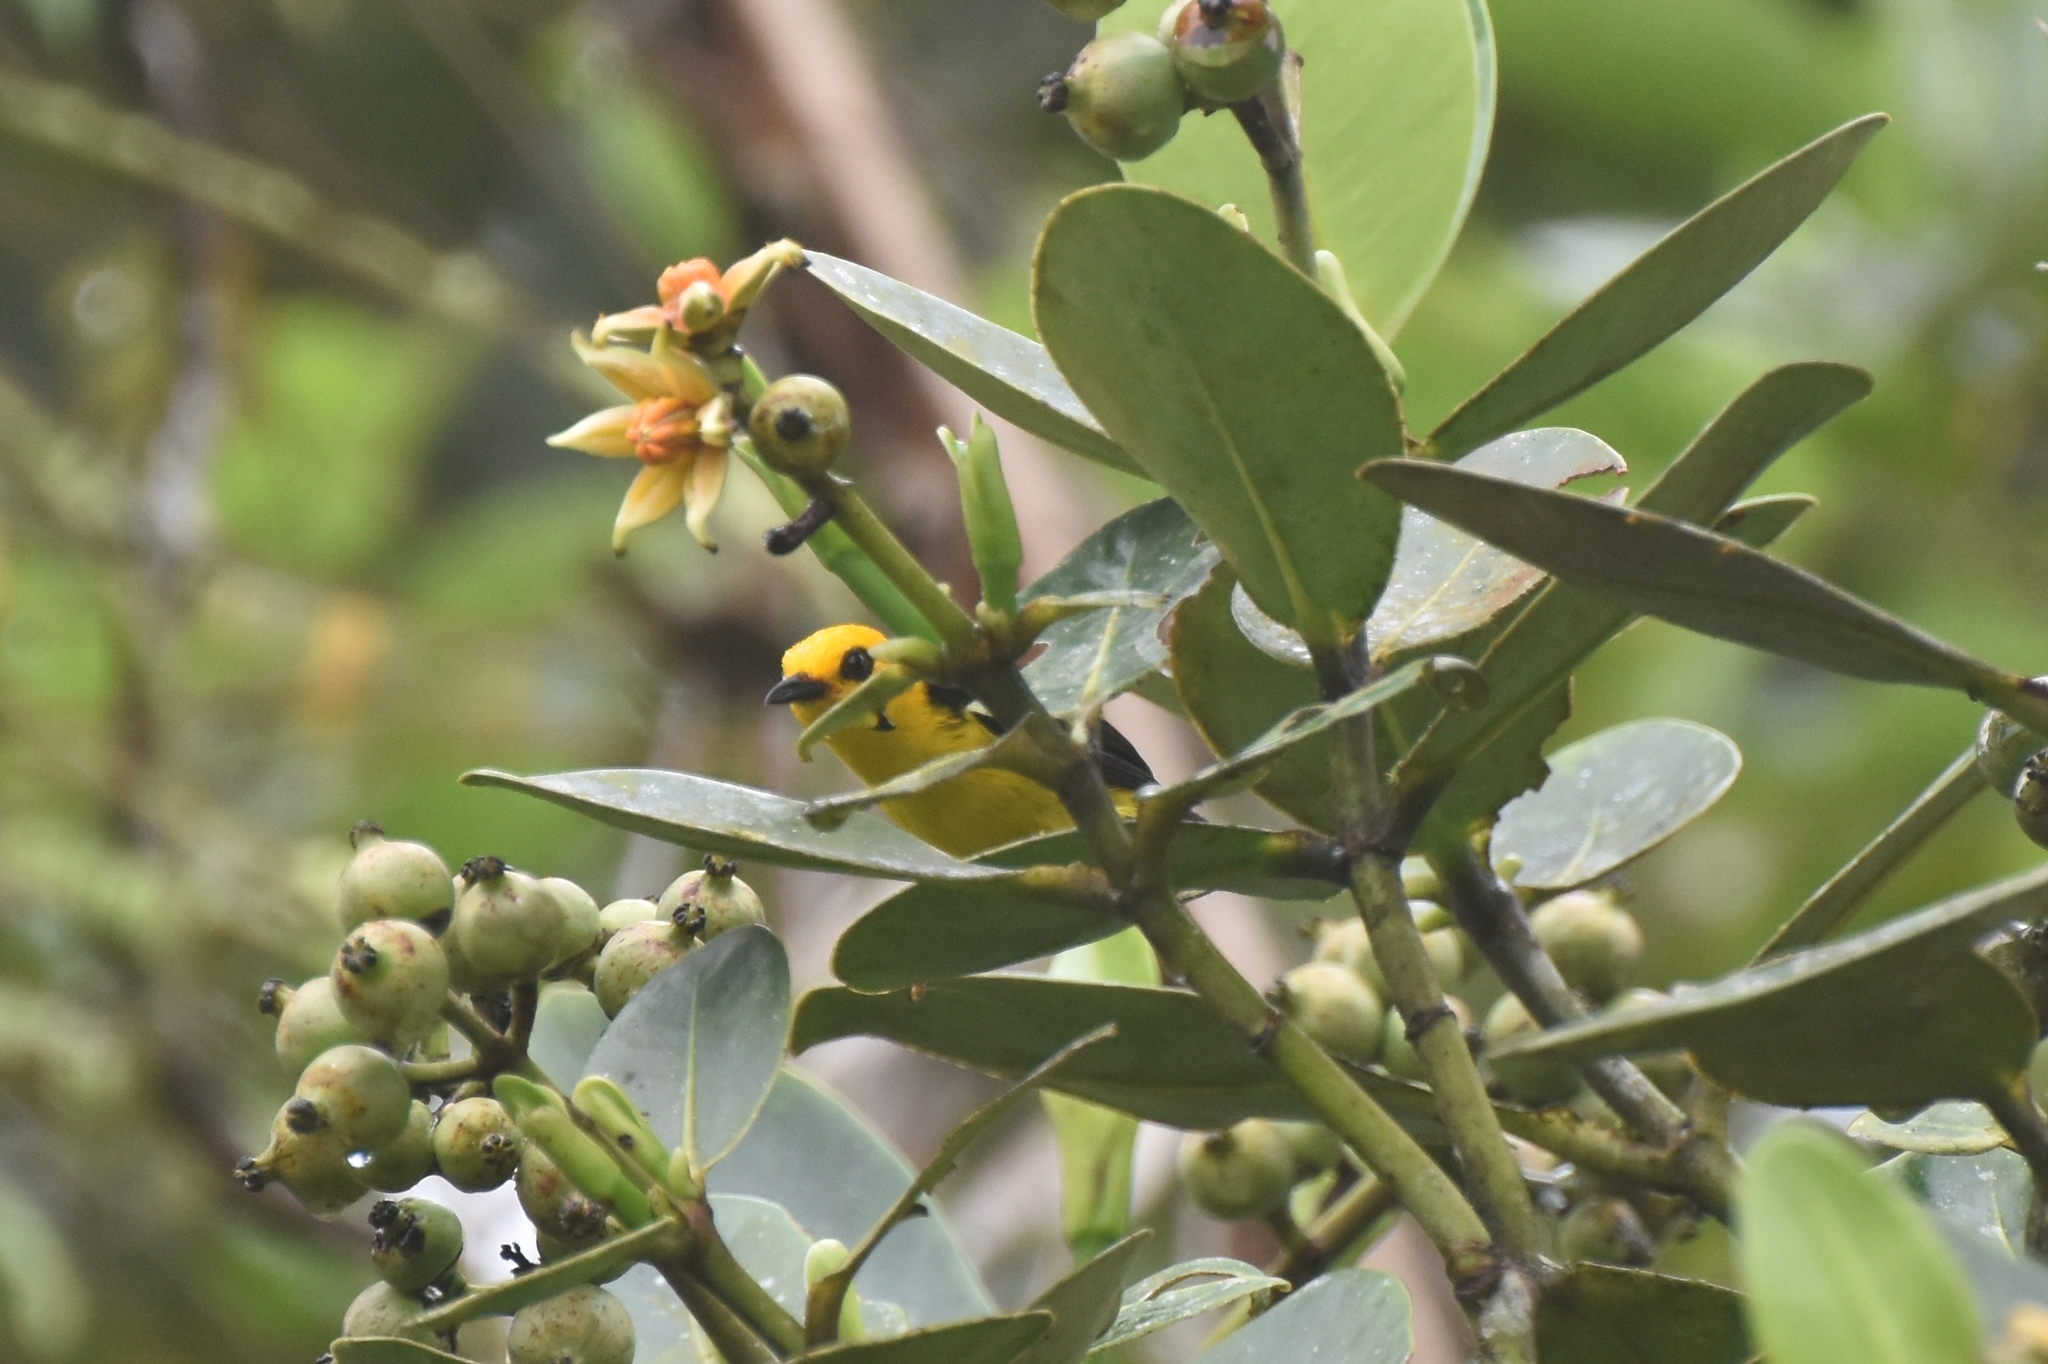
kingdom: Animalia
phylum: Chordata
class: Aves
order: Passeriformes
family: Thraupidae
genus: Chrysothlypis
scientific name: Chrysothlypis chrysomelas
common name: Black-and-yellow tanager
